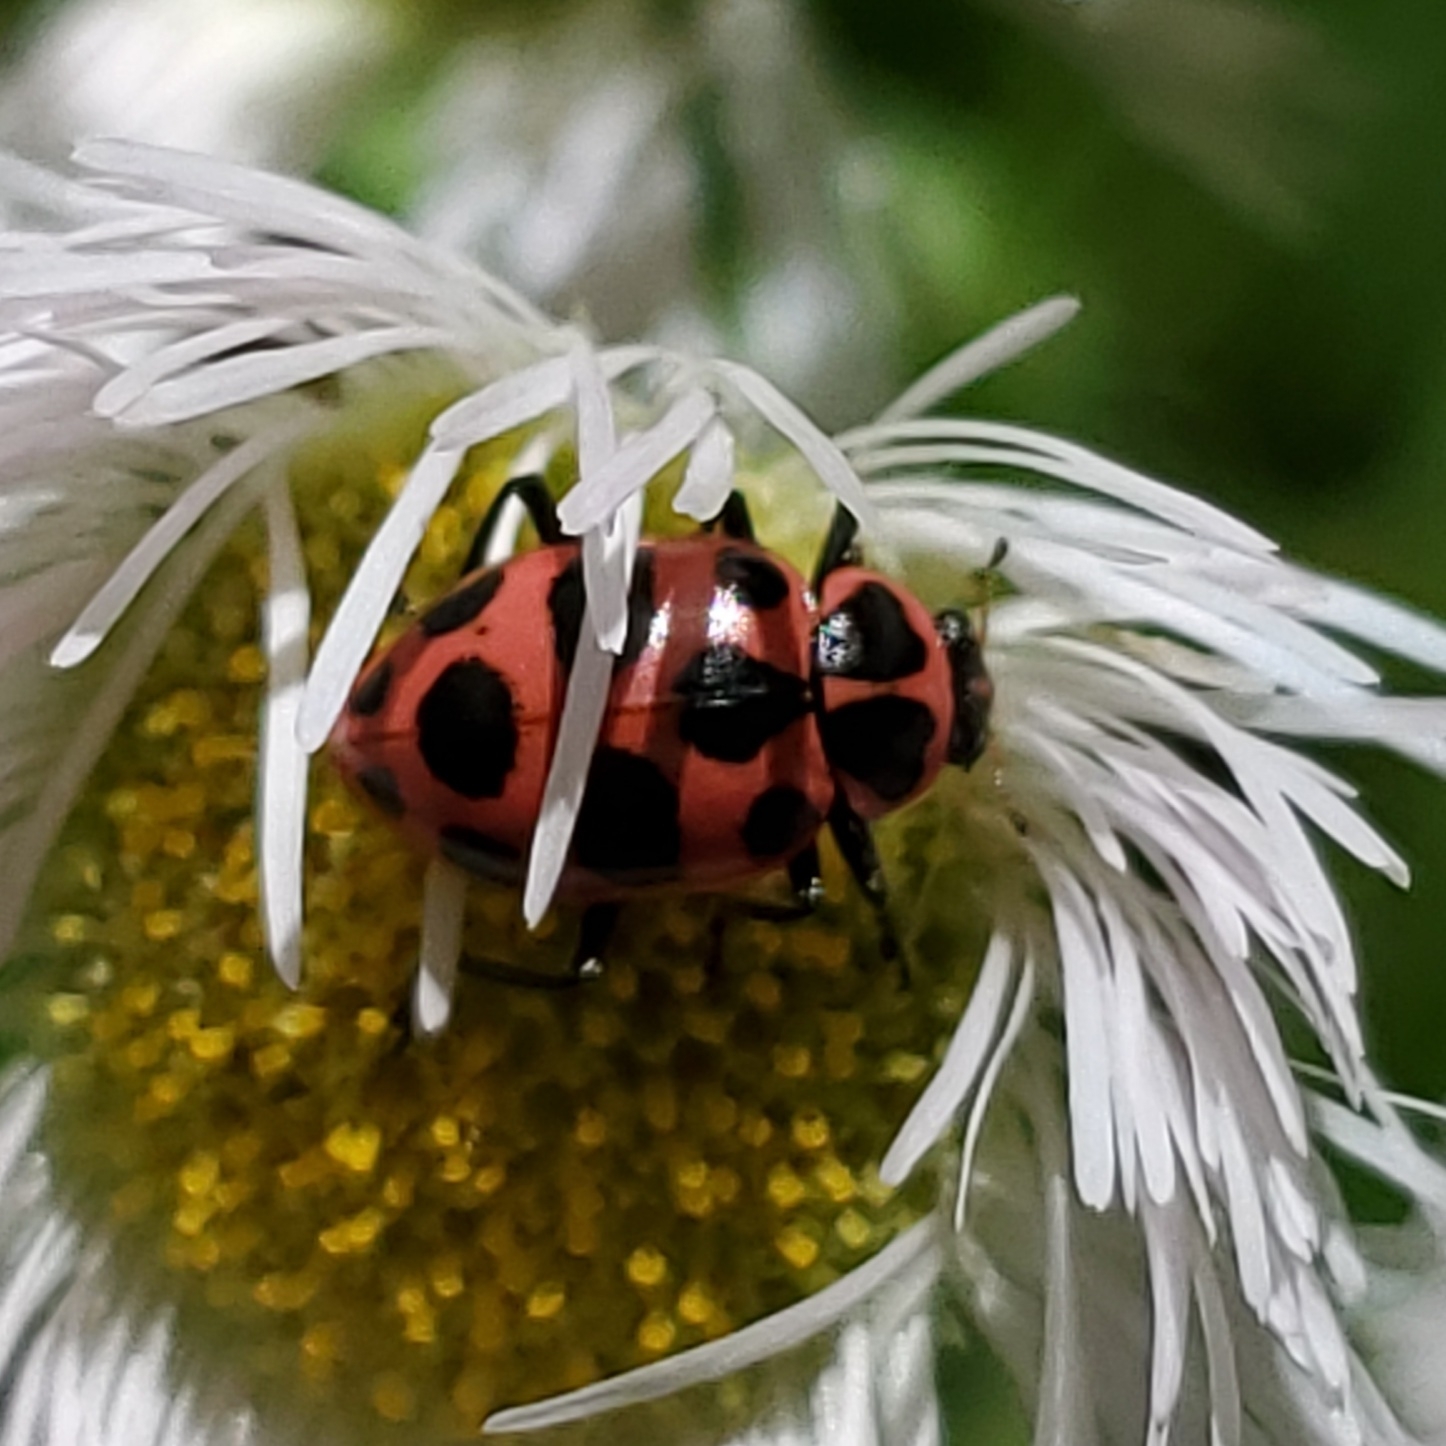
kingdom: Animalia
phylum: Arthropoda
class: Insecta
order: Coleoptera
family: Coccinellidae
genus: Coleomegilla
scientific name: Coleomegilla maculata
